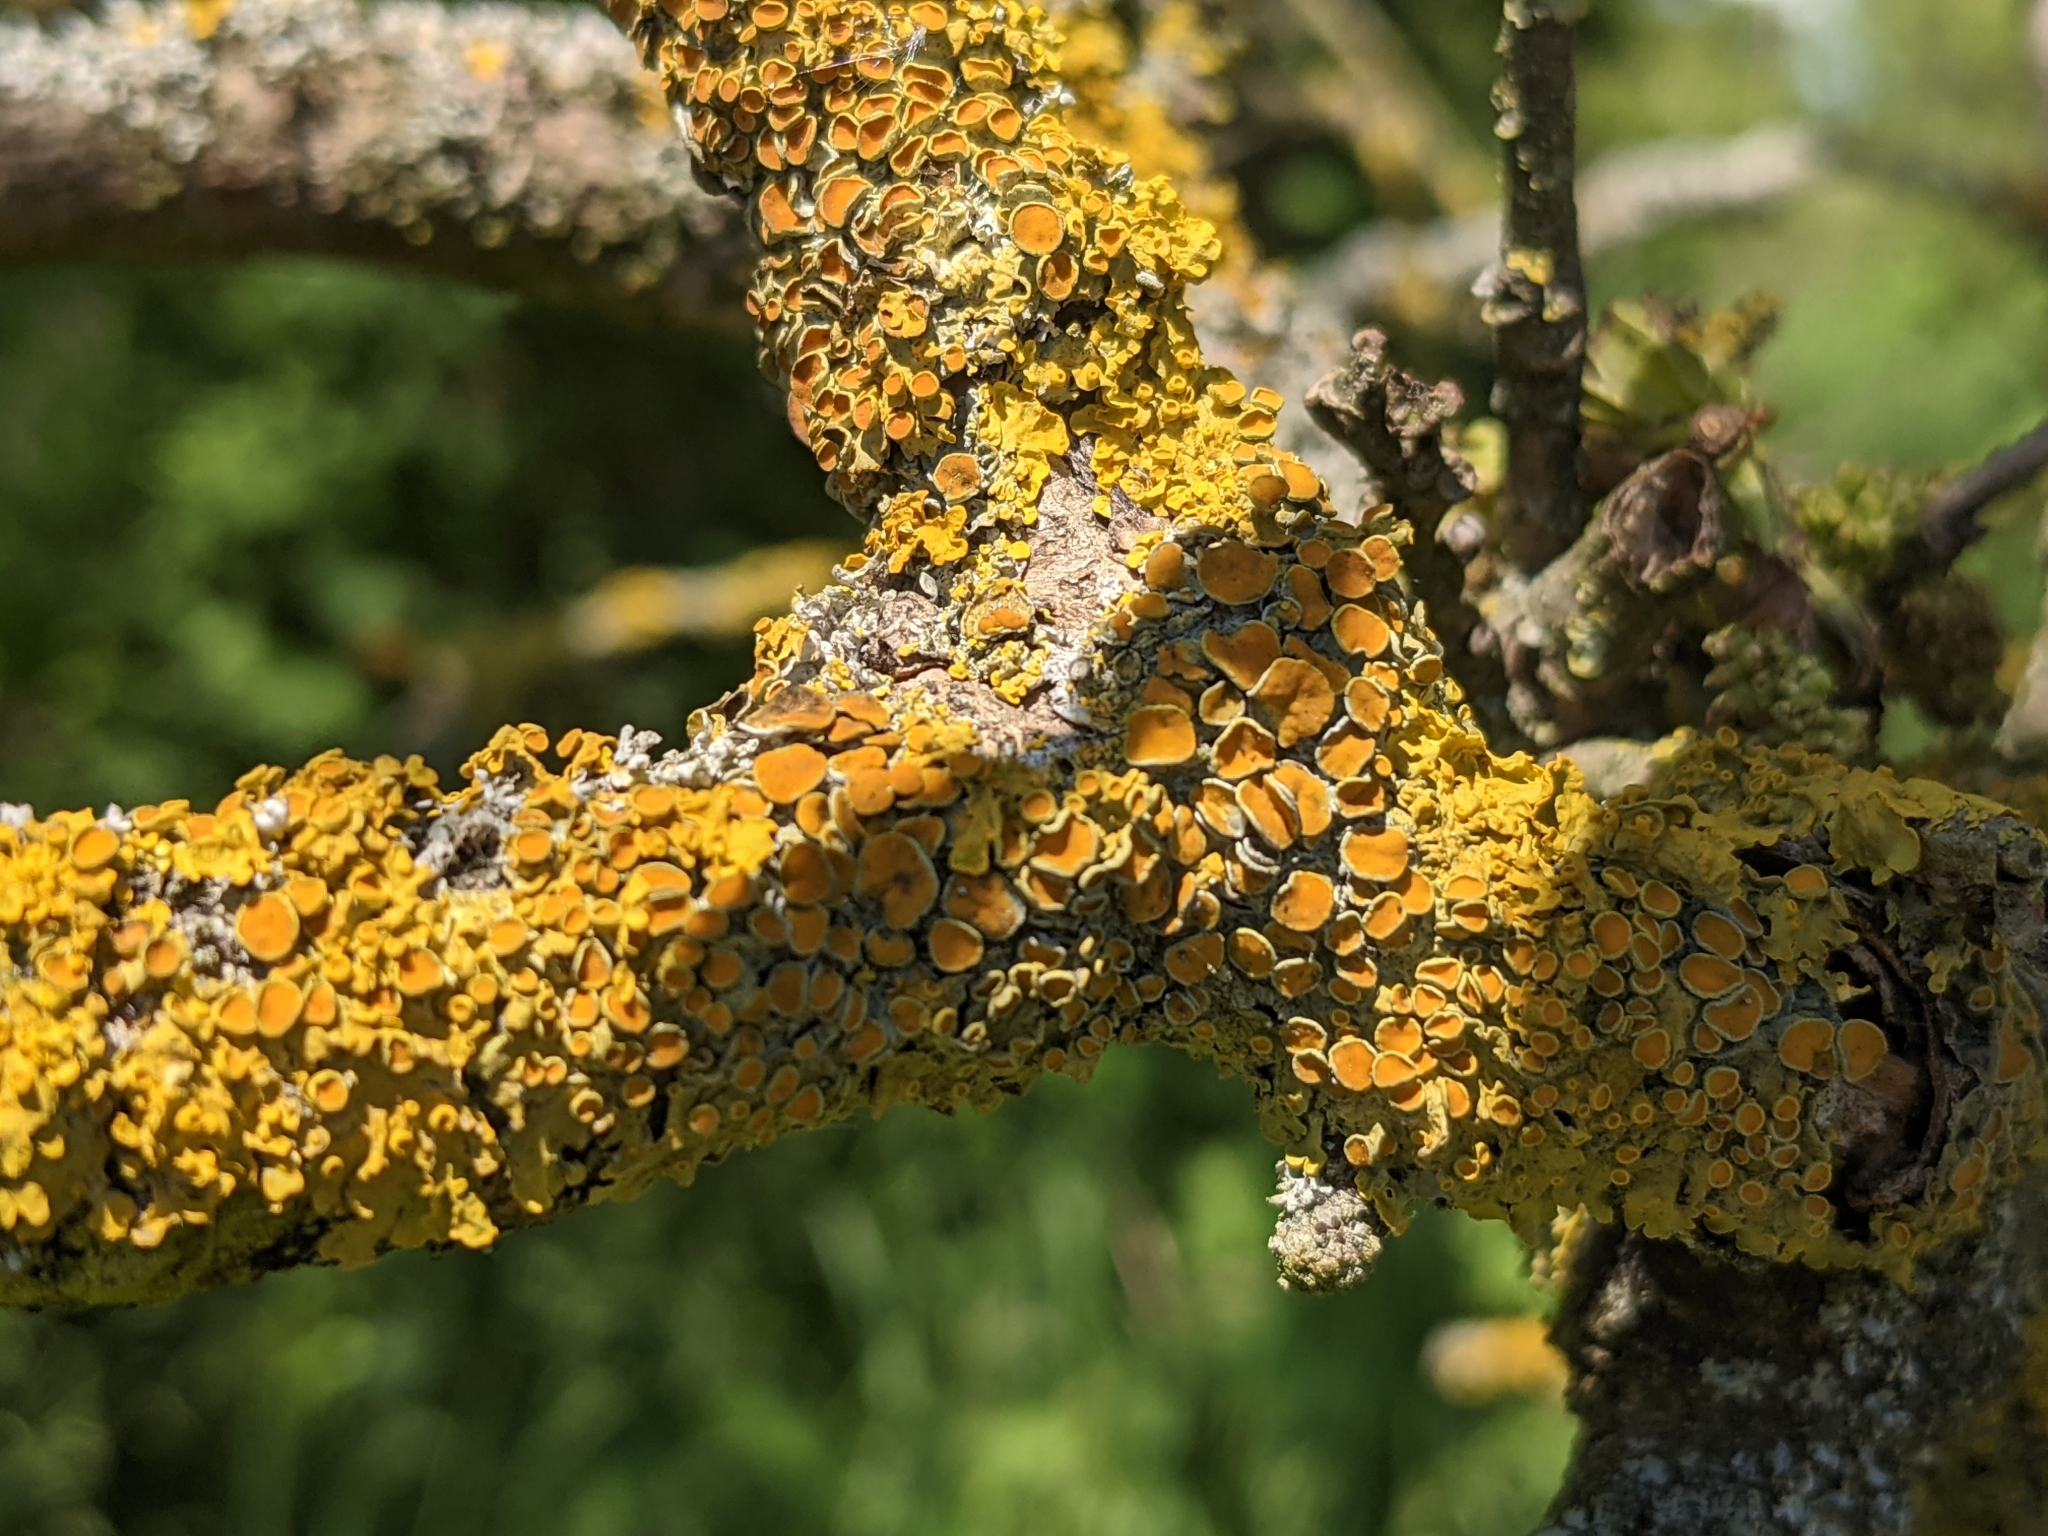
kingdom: Fungi
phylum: Ascomycota
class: Lecanoromycetes
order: Teloschistales
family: Teloschistaceae
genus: Xanthoria
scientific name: Xanthoria parietina
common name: Common orange lichen
